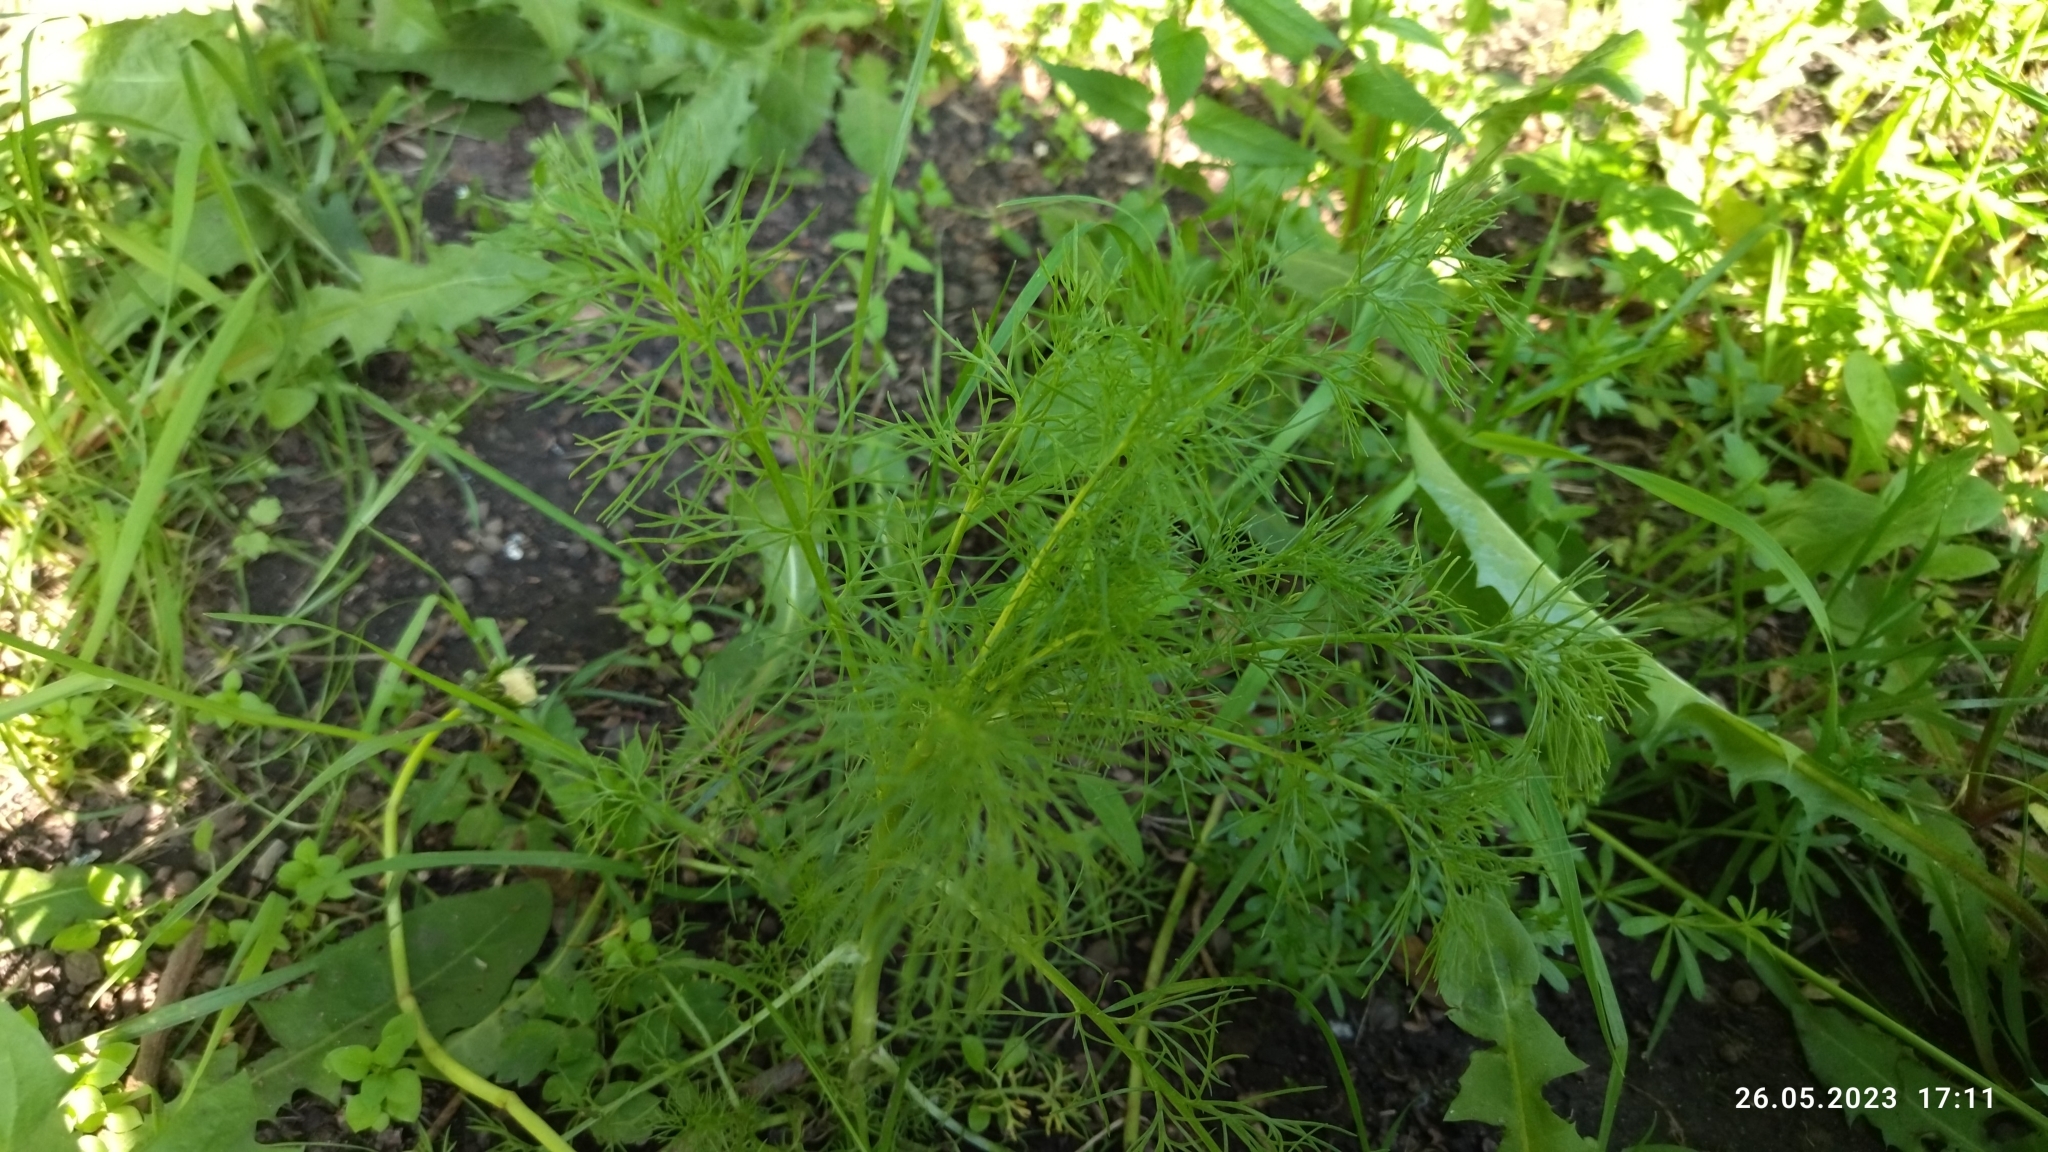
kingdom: Plantae
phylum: Tracheophyta
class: Magnoliopsida
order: Asterales
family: Asteraceae
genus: Tripleurospermum
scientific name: Tripleurospermum inodorum
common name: Scentless mayweed
